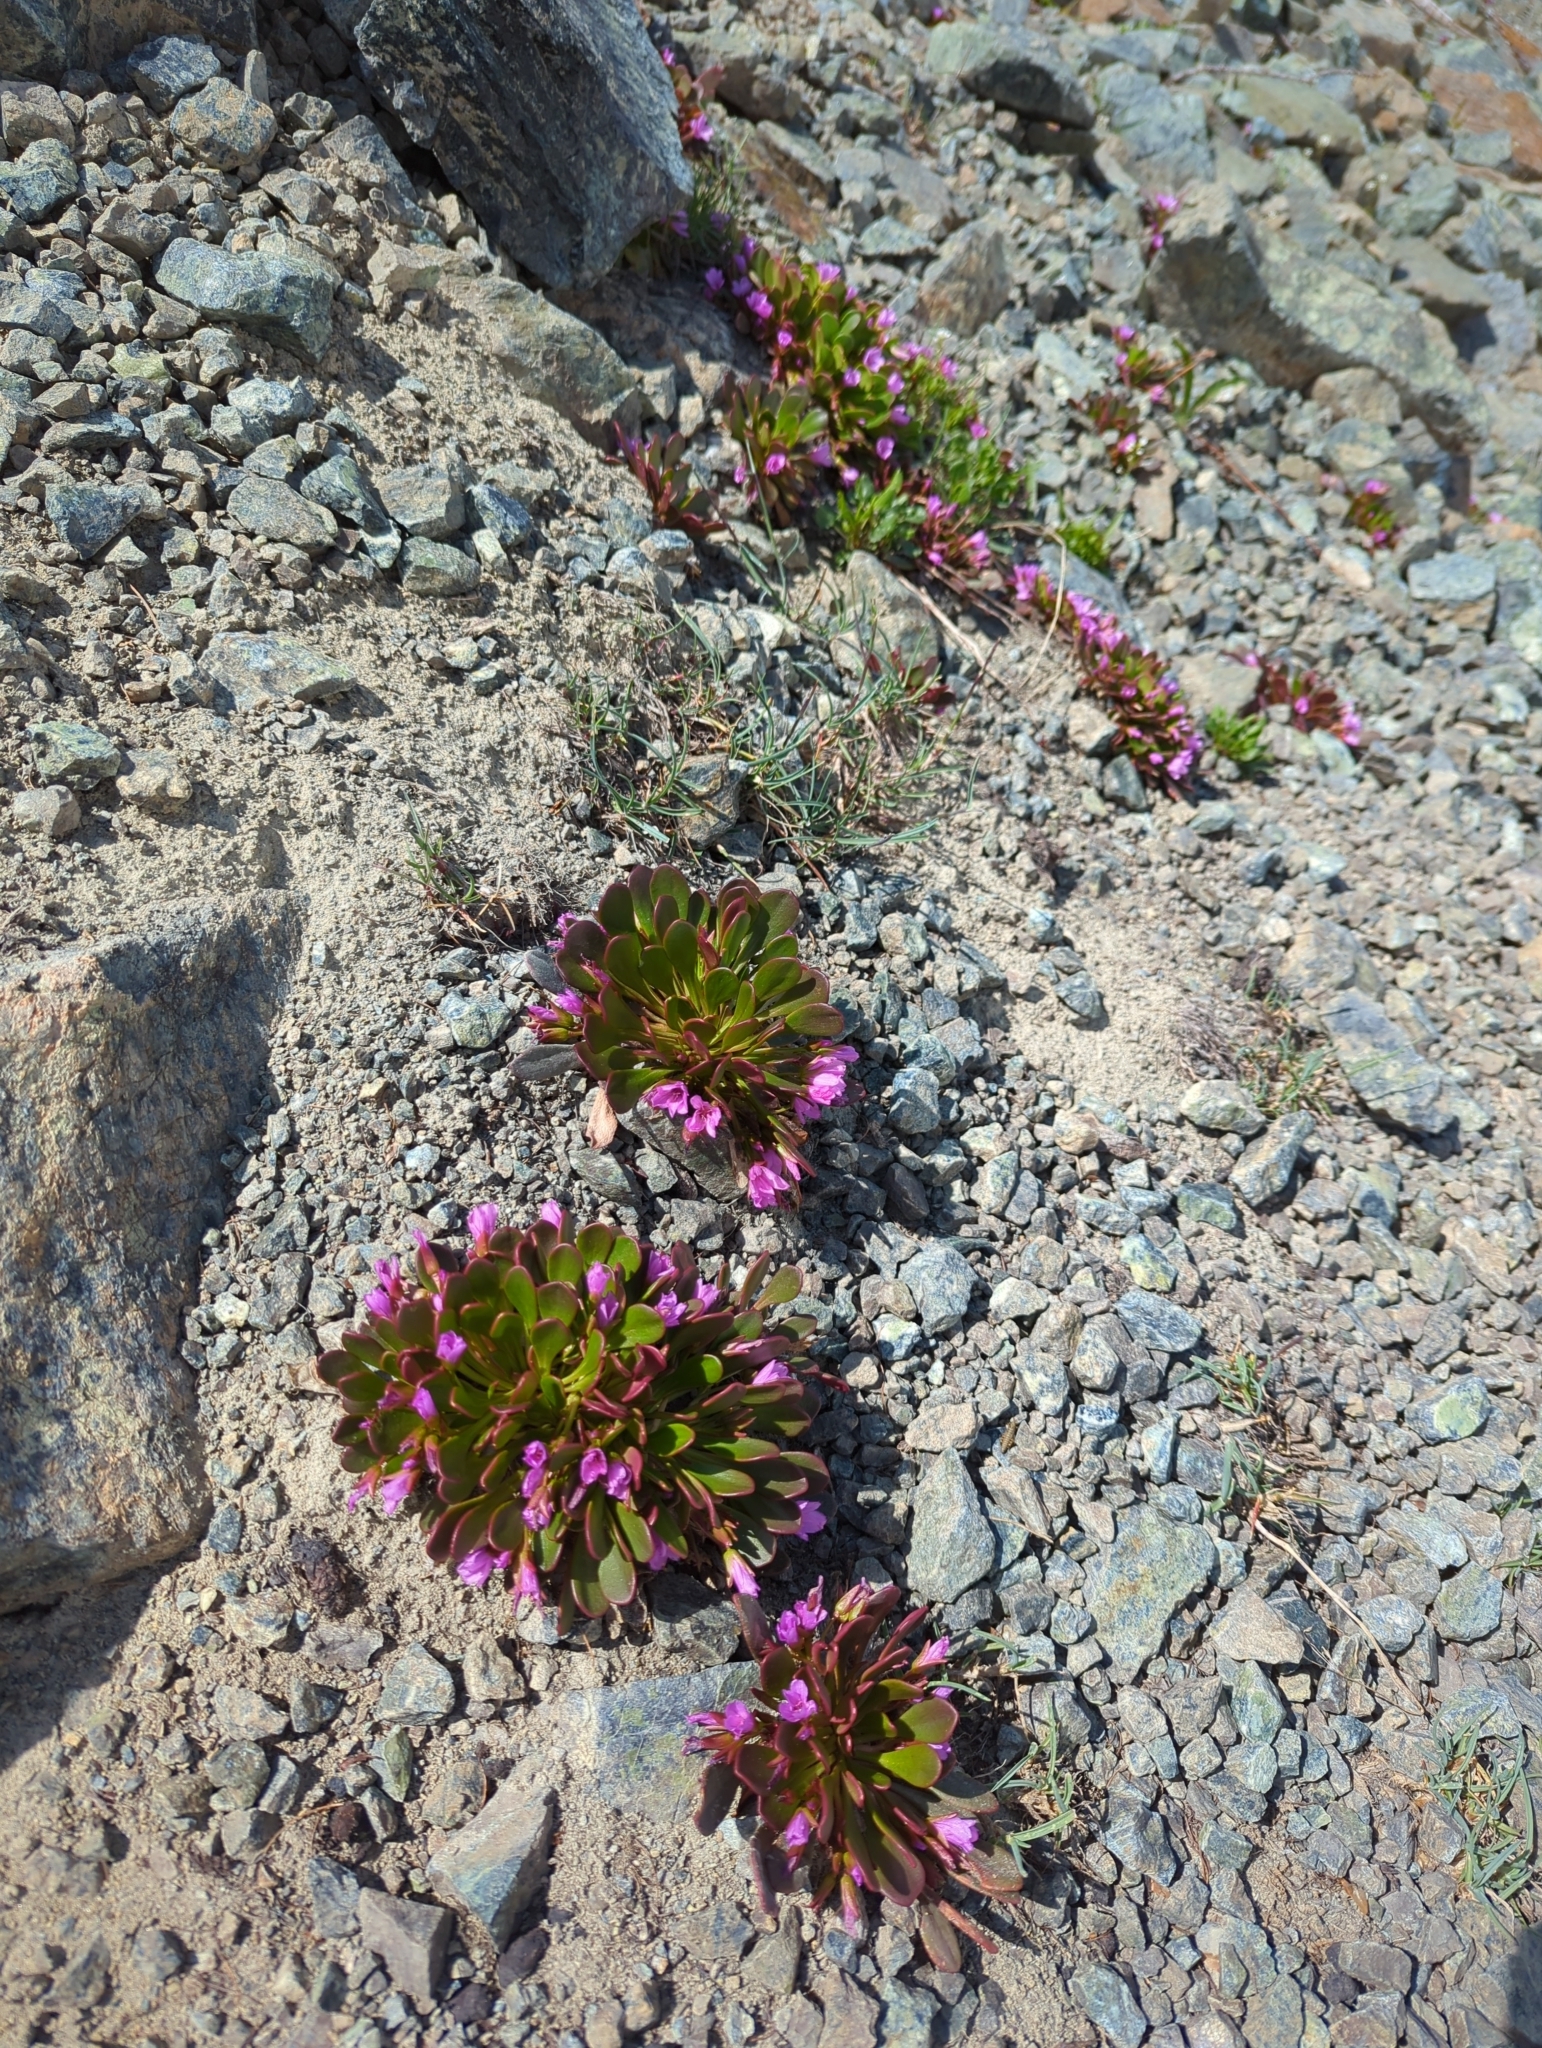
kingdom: Plantae
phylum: Tracheophyta
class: Magnoliopsida
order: Caryophyllales
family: Montiaceae
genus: Claytonia
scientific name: Claytonia megarhiza
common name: Alpine spring beauty
